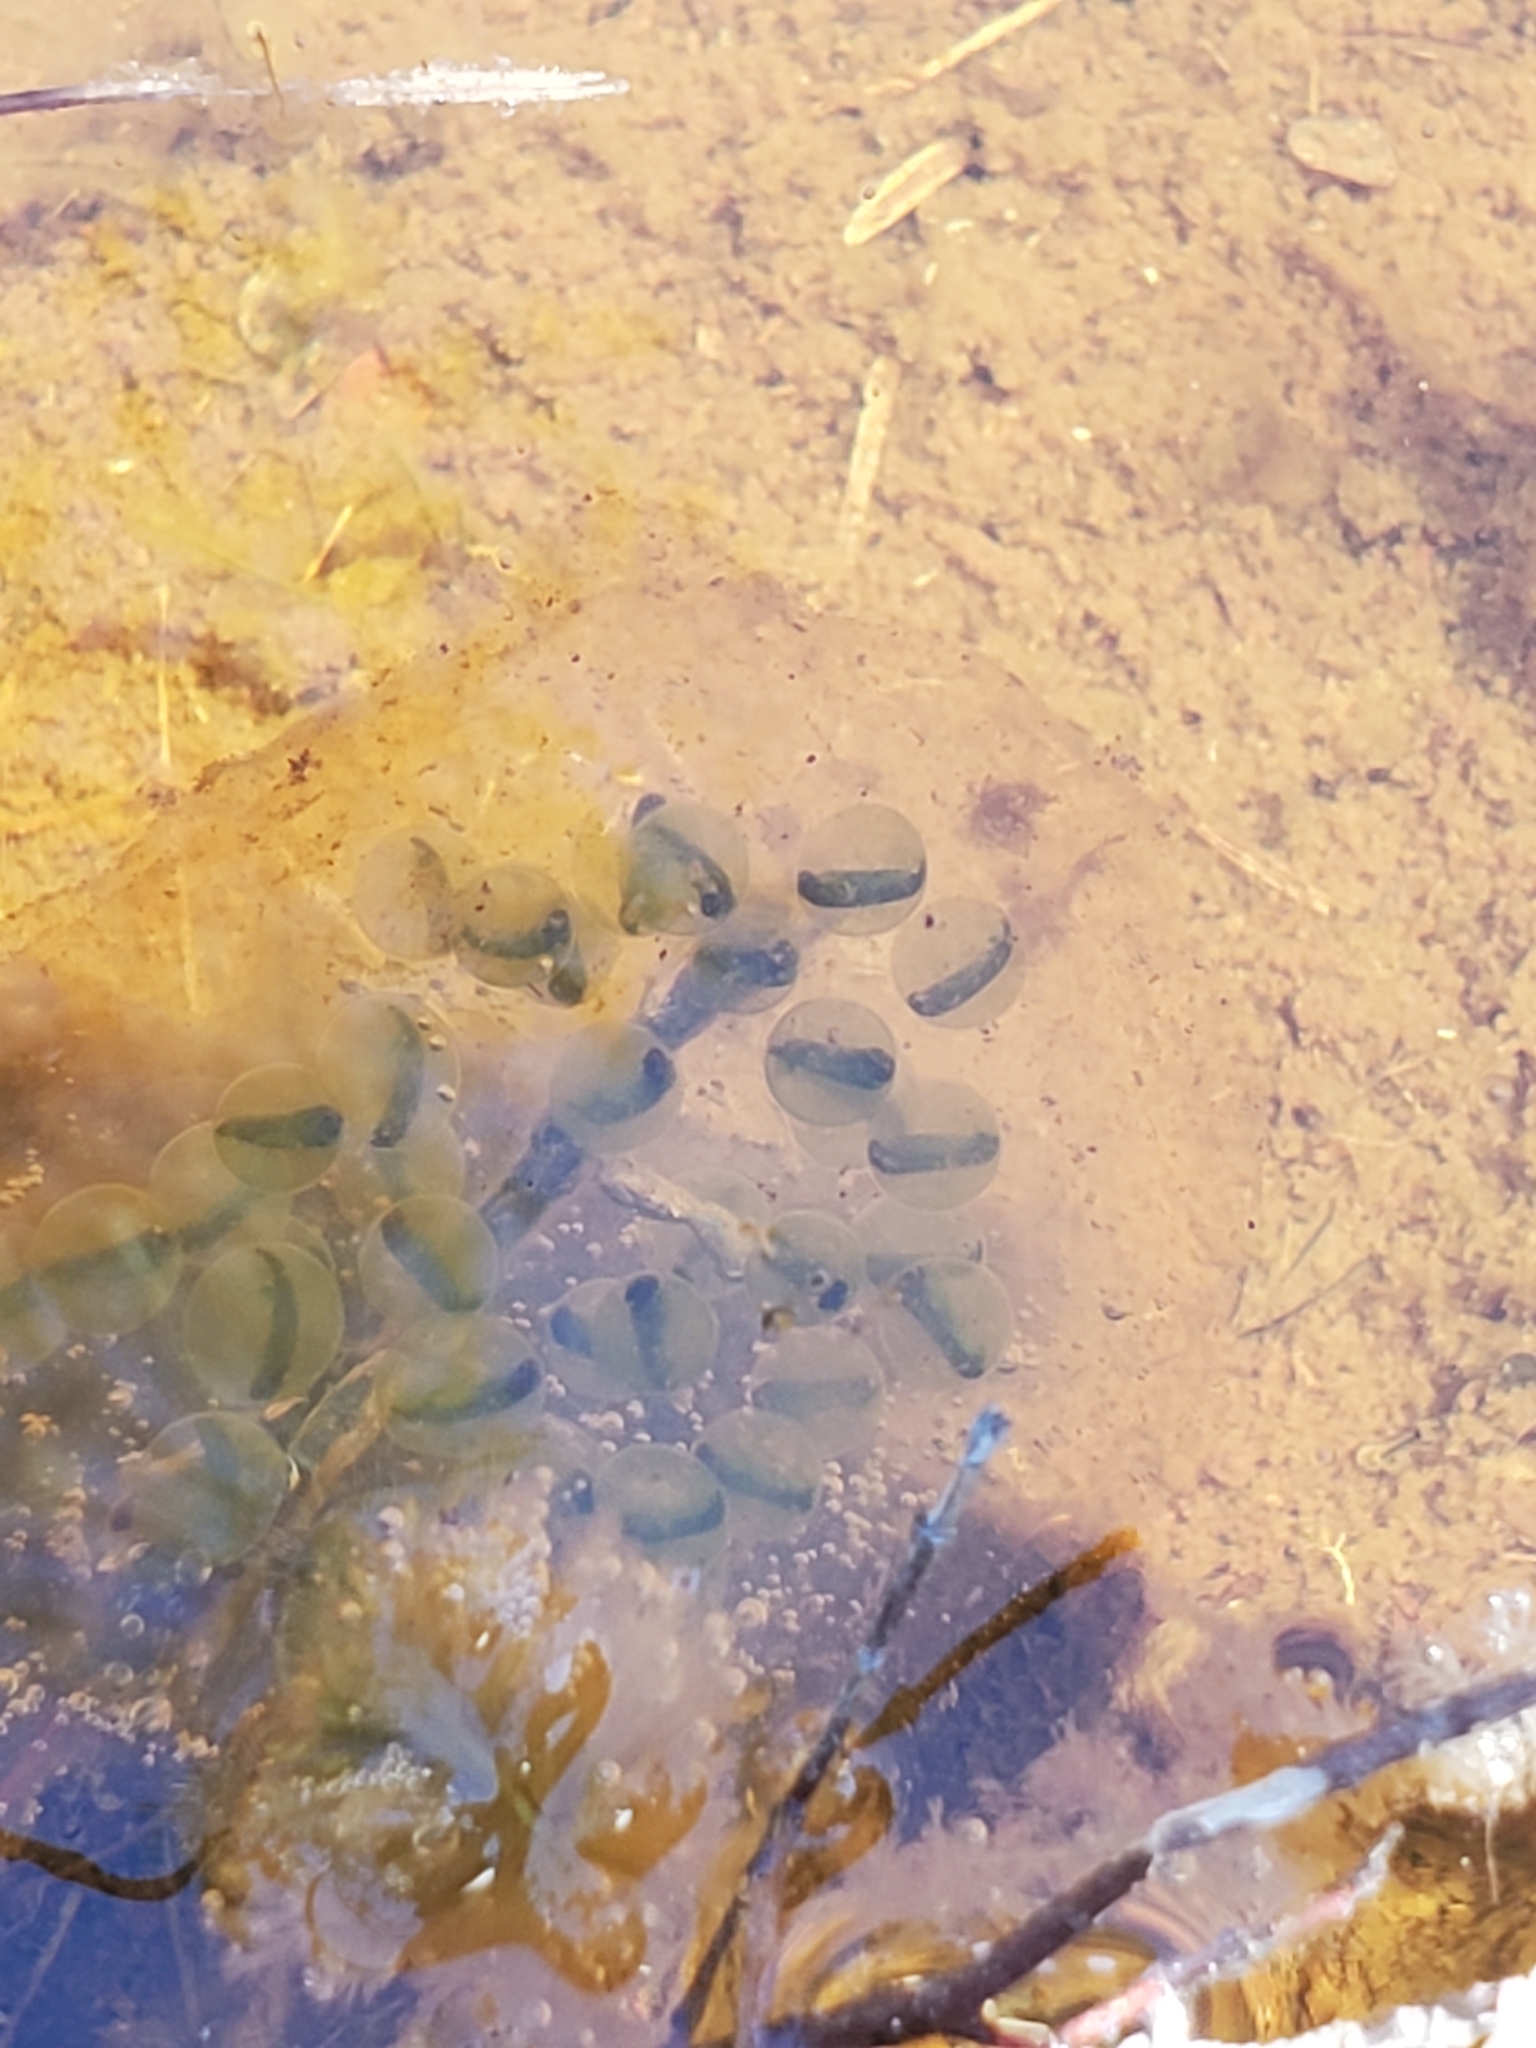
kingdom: Animalia
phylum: Chordata
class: Amphibia
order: Caudata
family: Ambystomatidae
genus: Ambystoma
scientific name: Ambystoma gracile
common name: Northwestern salamander
